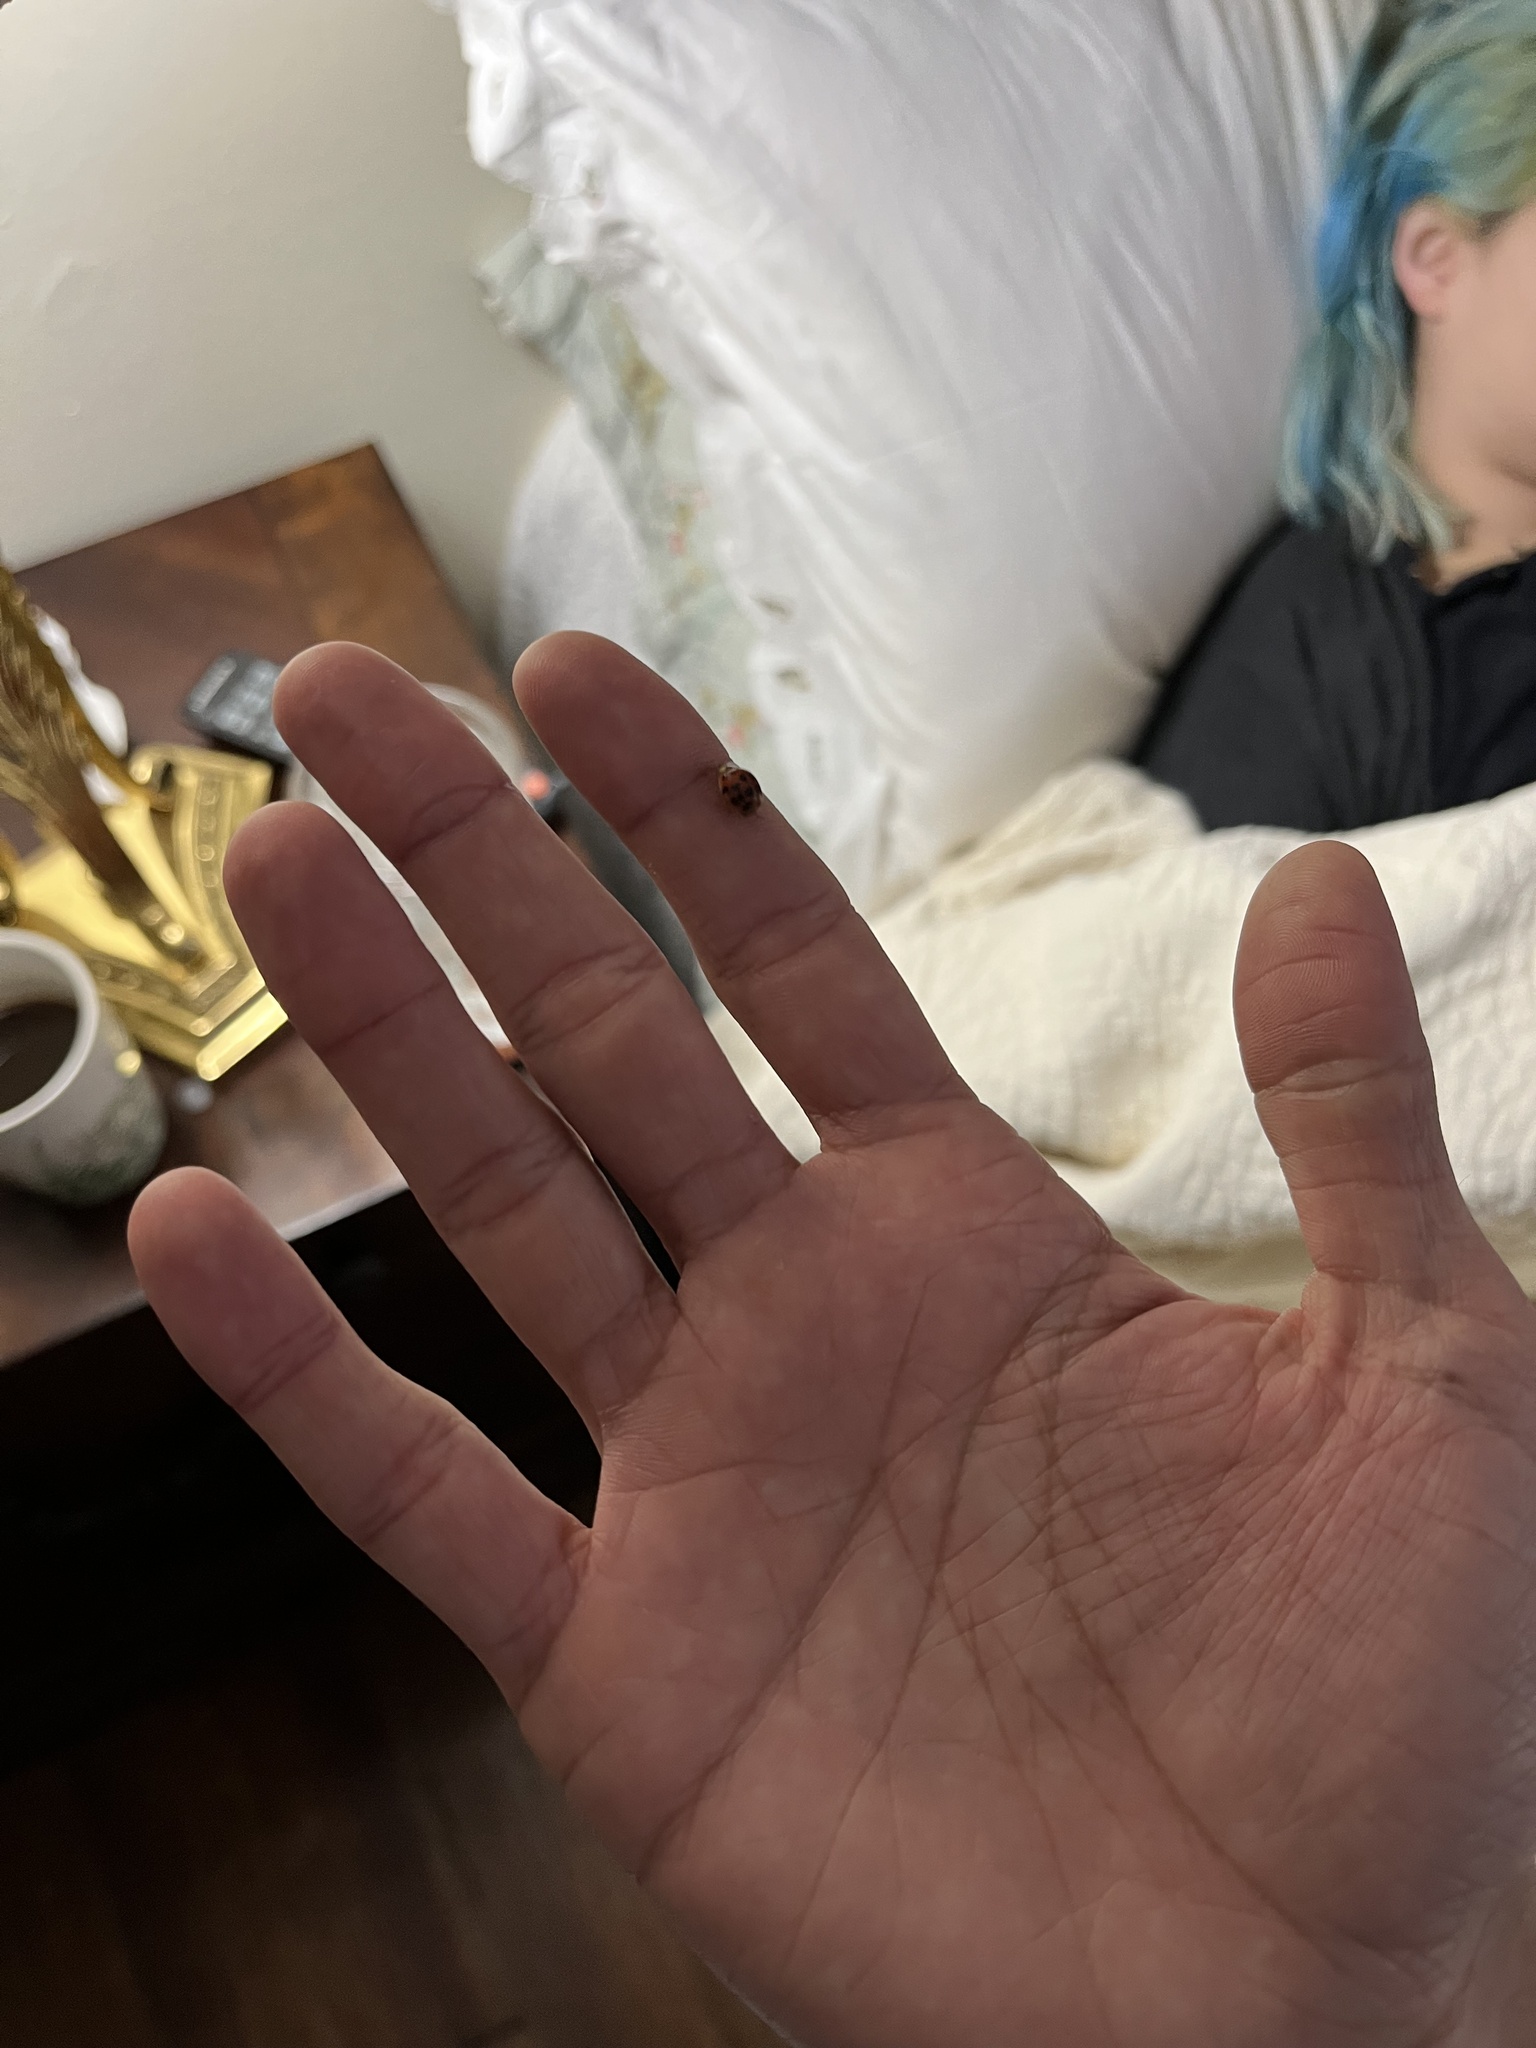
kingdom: Animalia
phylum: Arthropoda
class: Insecta
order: Coleoptera
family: Coccinellidae
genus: Harmonia
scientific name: Harmonia axyridis
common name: Harlequin ladybird
